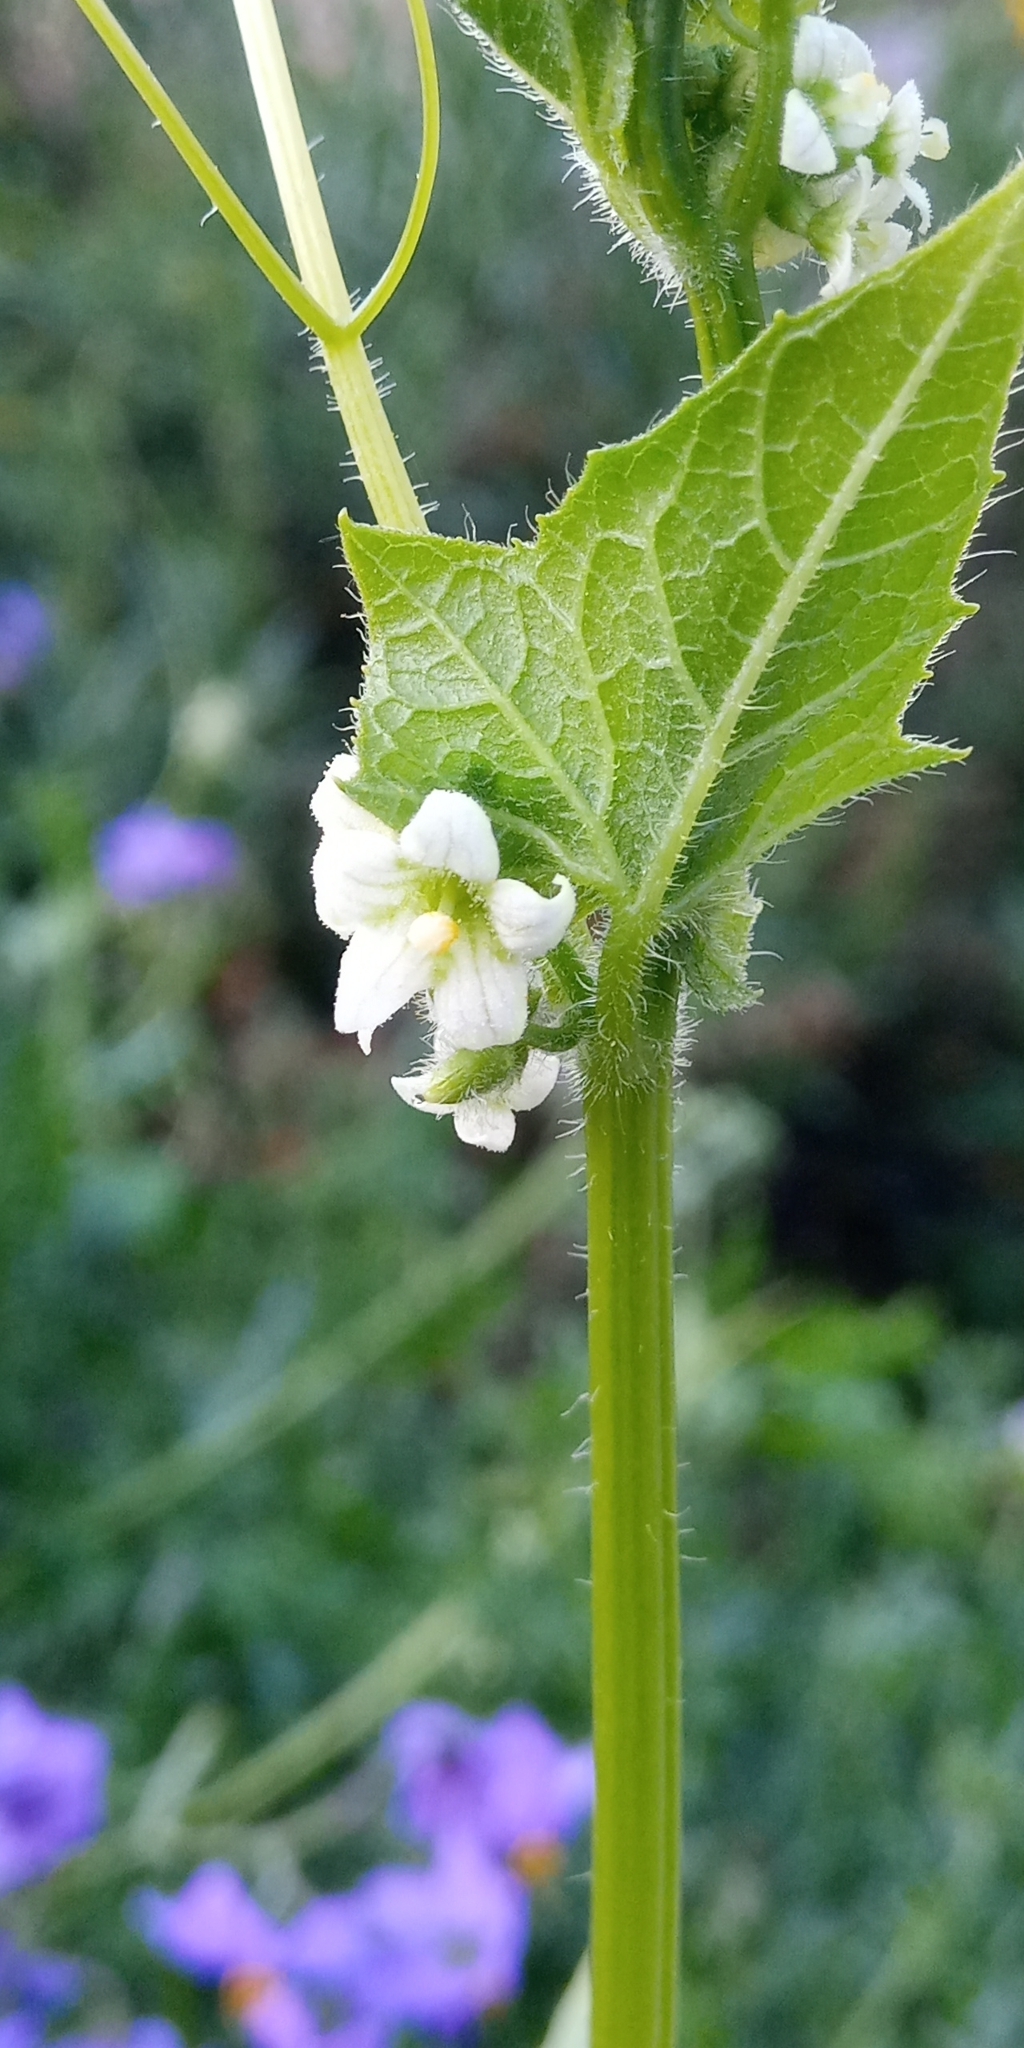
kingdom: Plantae
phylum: Tracheophyta
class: Magnoliopsida
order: Cucurbitales
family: Cucurbitaceae
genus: Sicyos
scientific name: Sicyos baderoa
